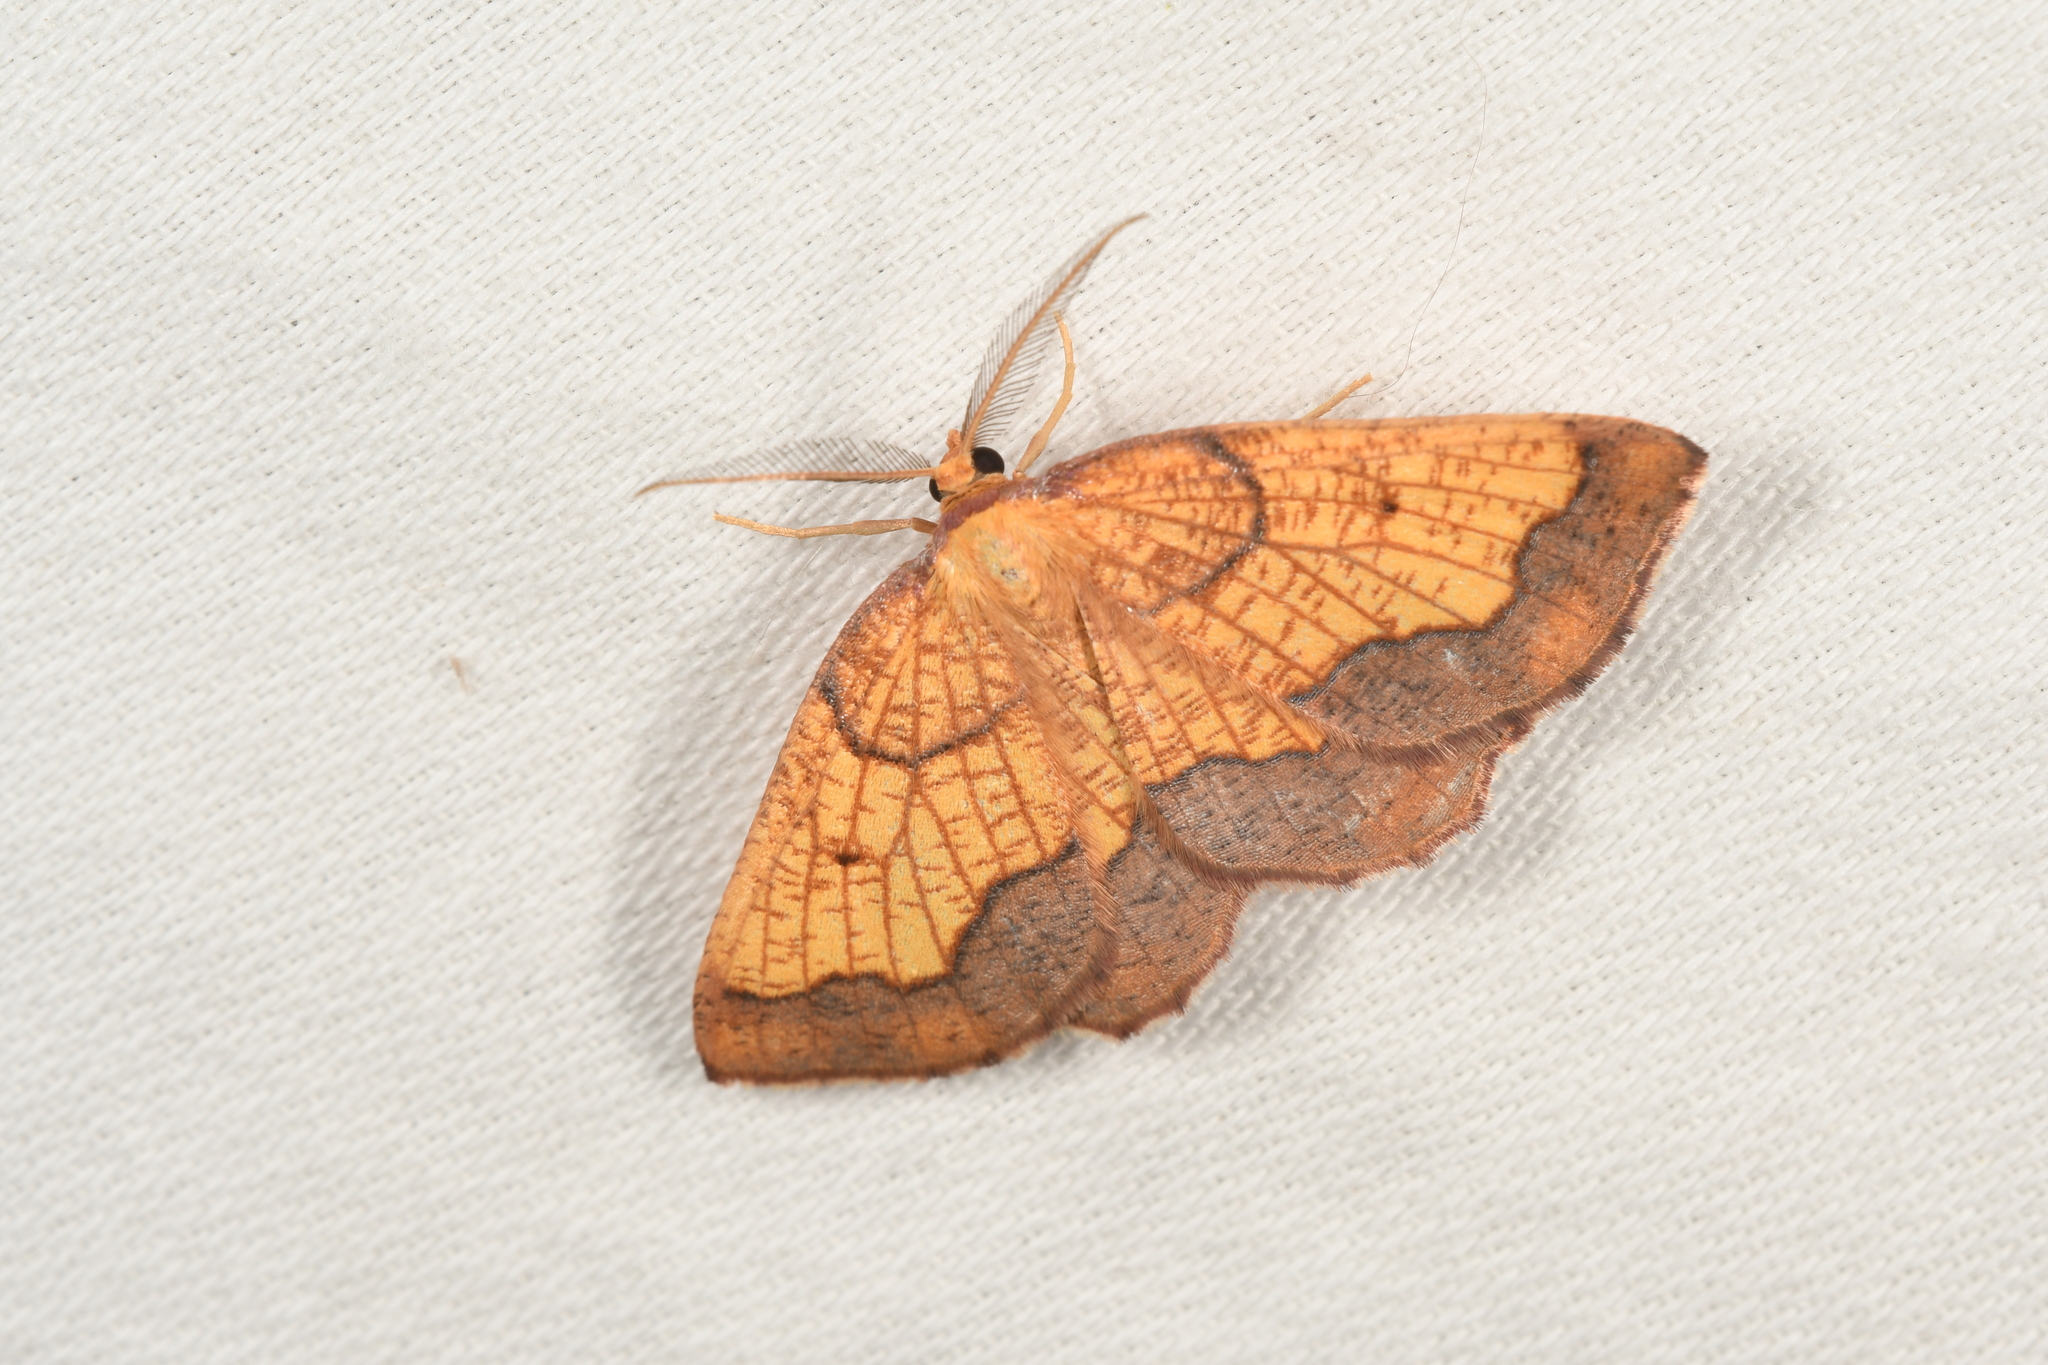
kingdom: Animalia
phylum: Arthropoda
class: Insecta
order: Lepidoptera
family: Geometridae
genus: Epione
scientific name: Epione vespertaria
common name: Dark bordered beauty
